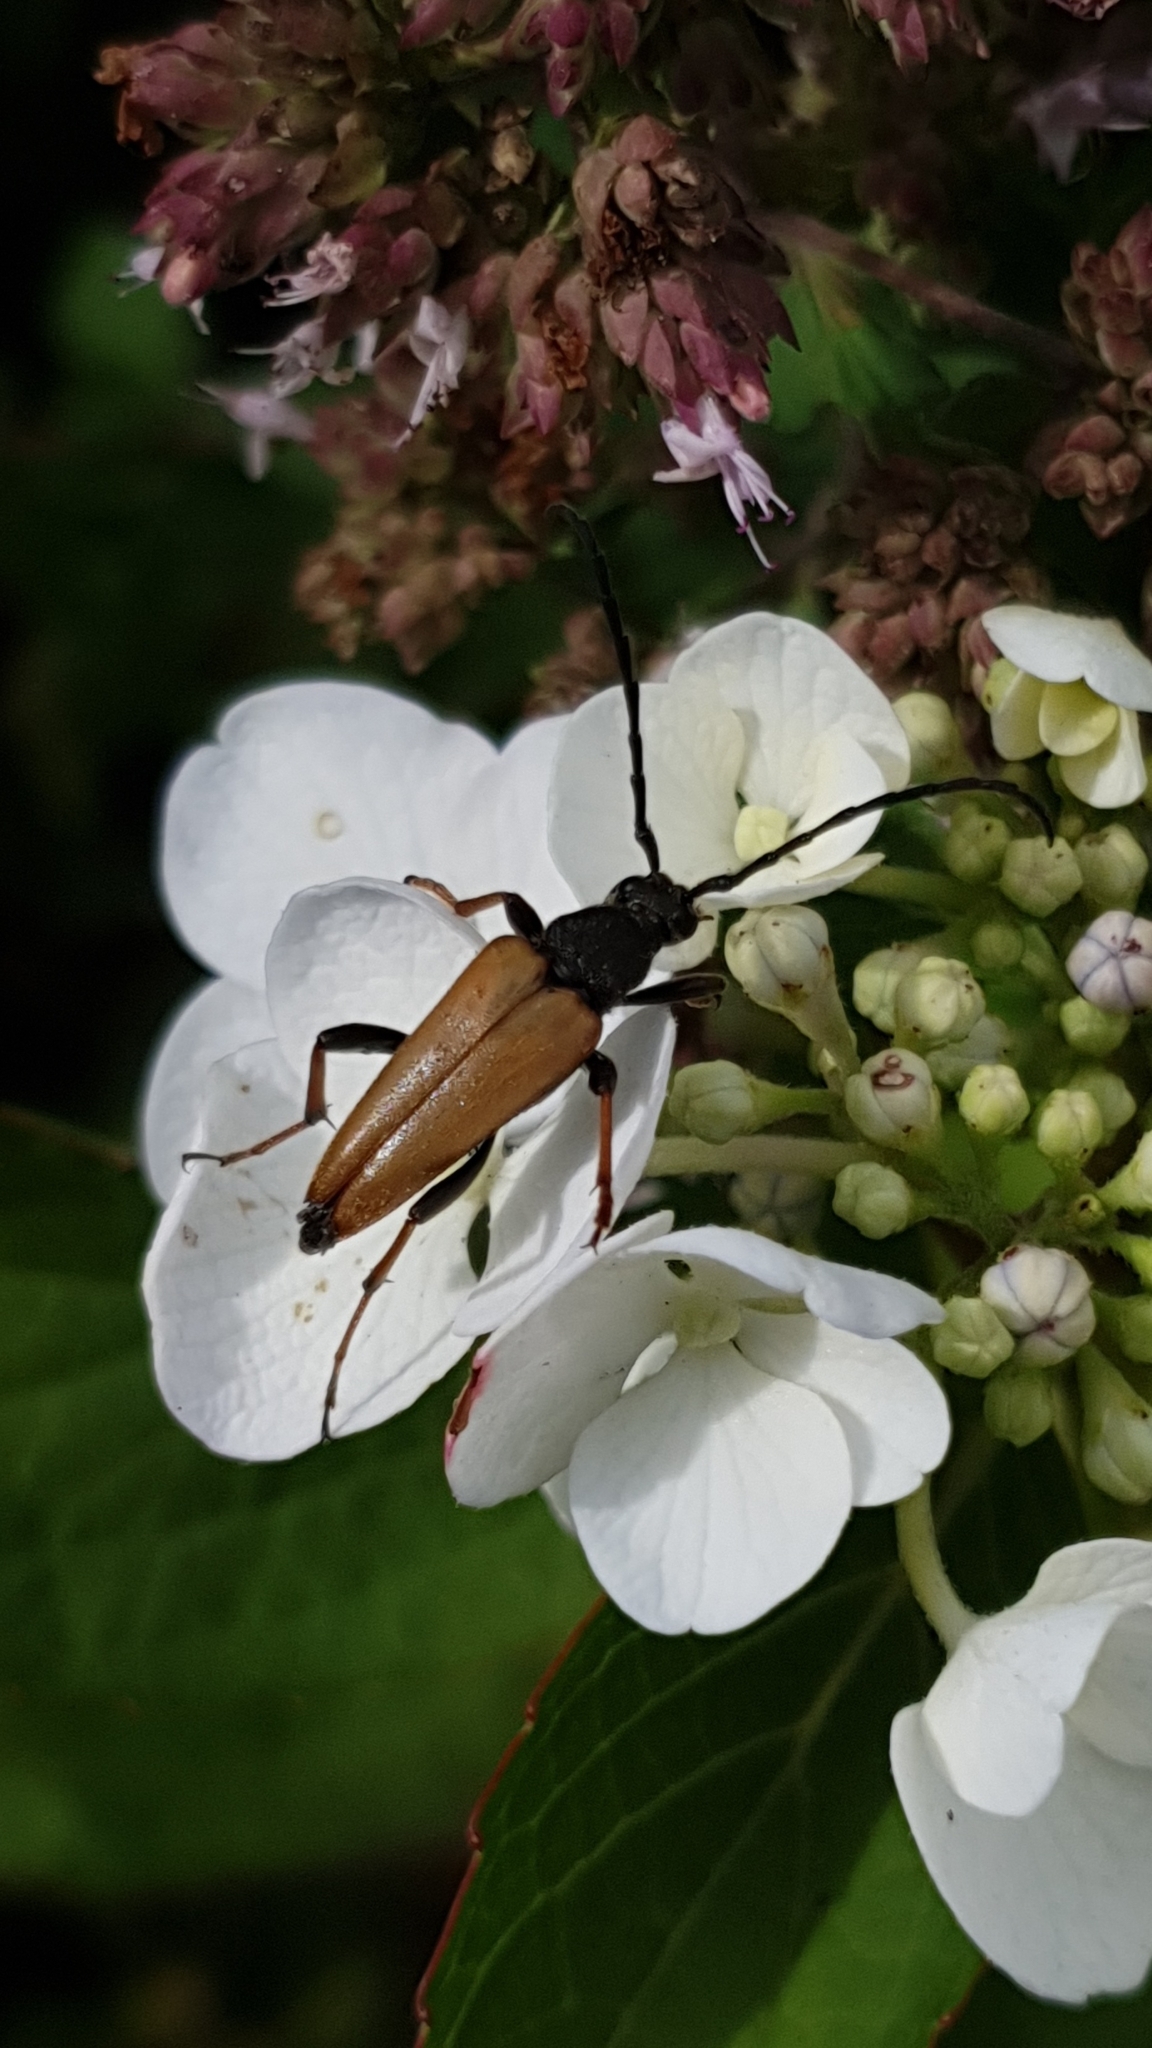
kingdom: Animalia
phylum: Arthropoda
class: Insecta
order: Coleoptera
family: Cerambycidae
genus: Stictoleptura
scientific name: Stictoleptura rubra
